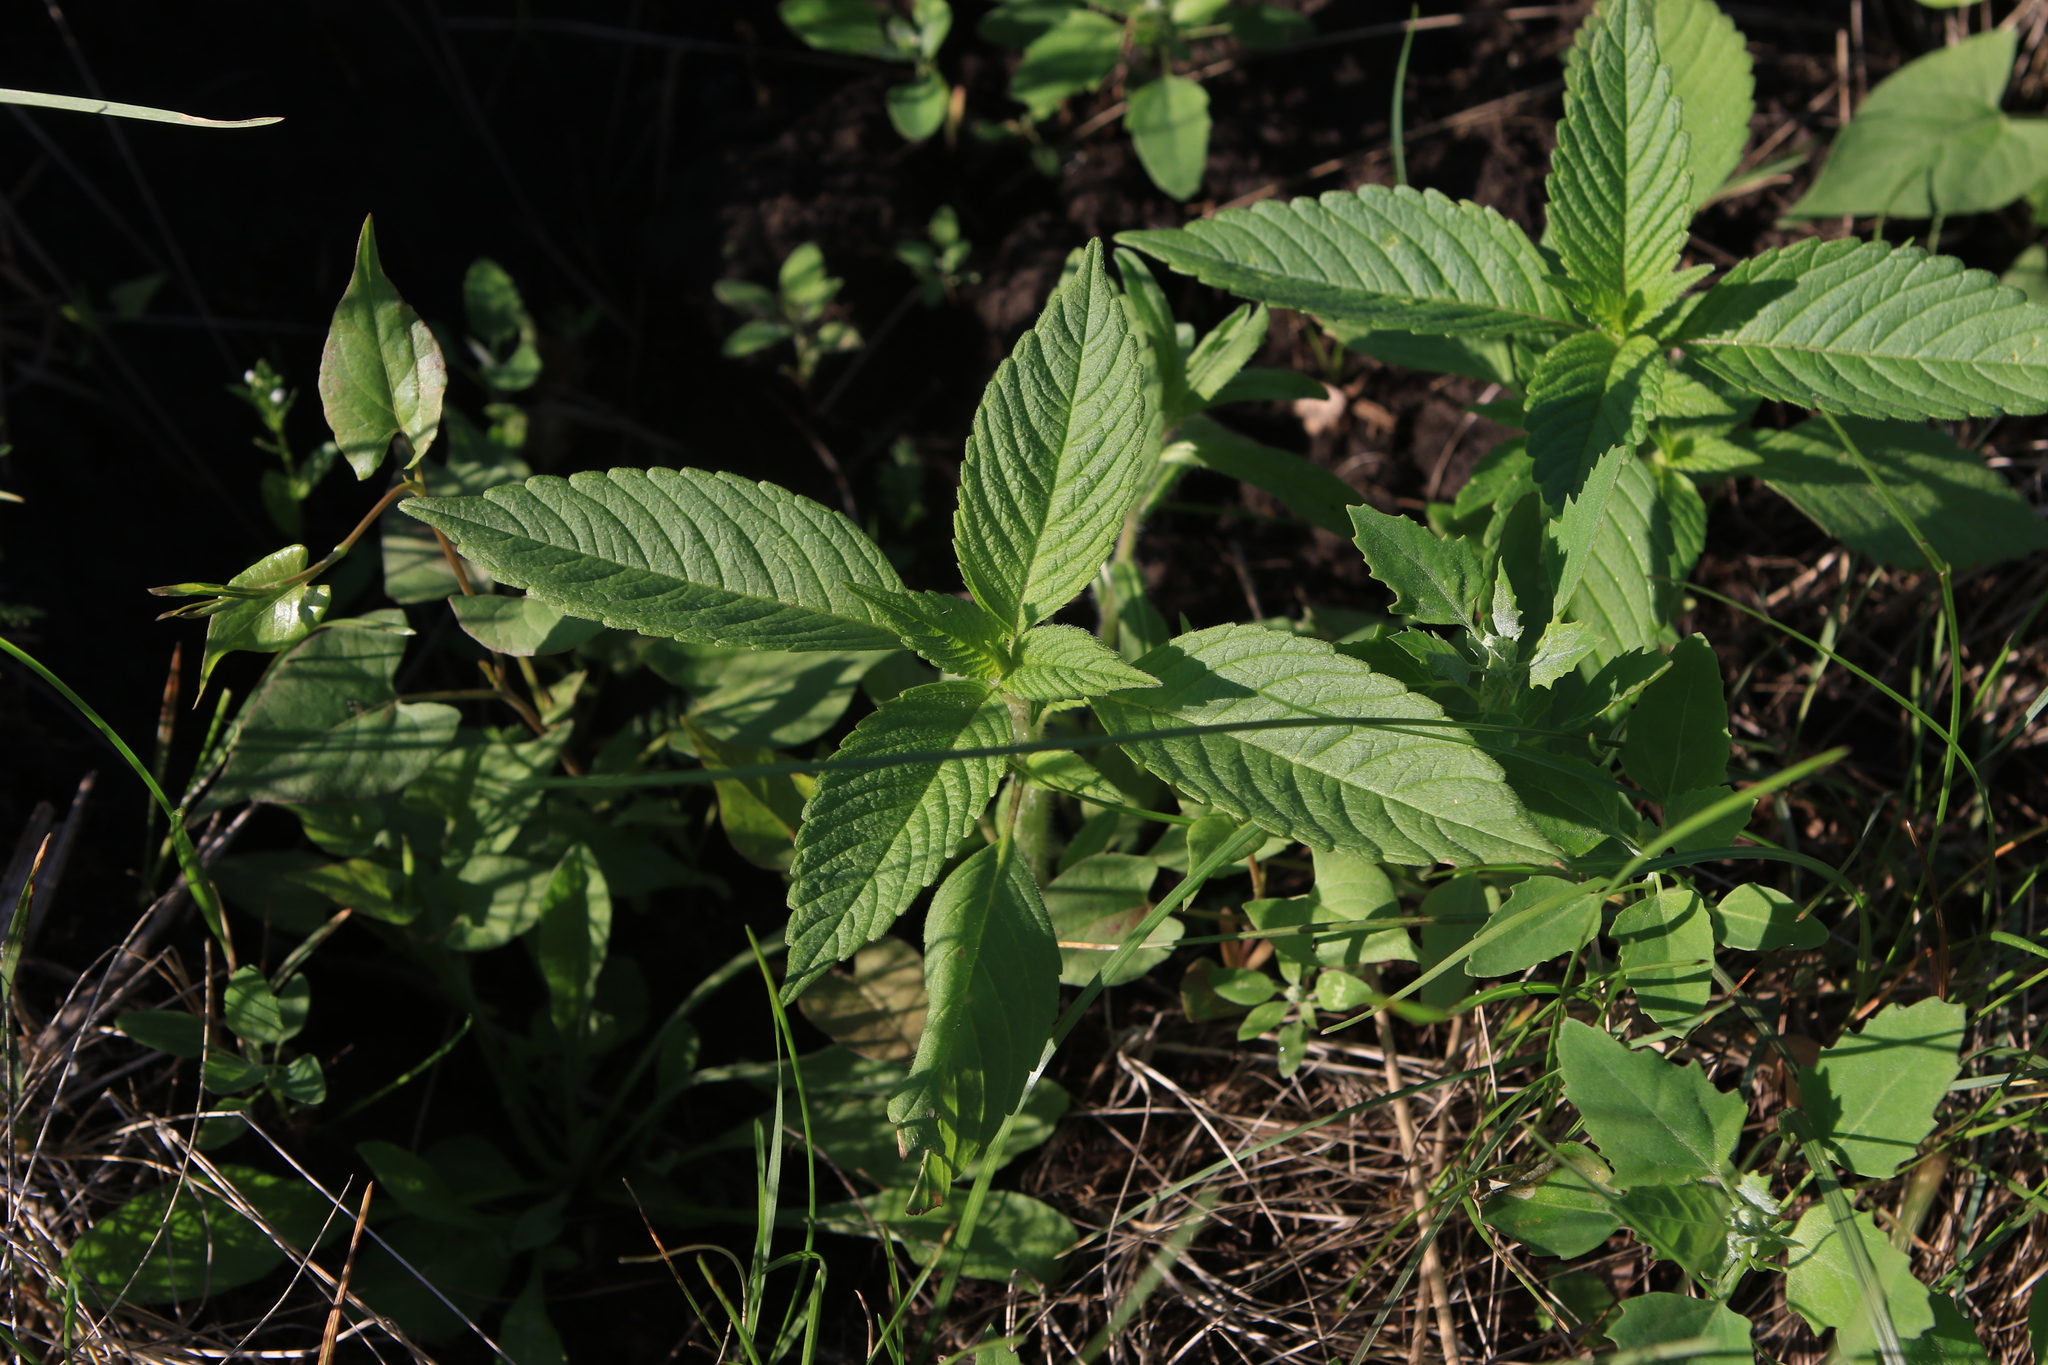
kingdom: Plantae
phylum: Tracheophyta
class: Magnoliopsida
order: Lamiales
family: Lamiaceae
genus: Galeopsis
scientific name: Galeopsis
